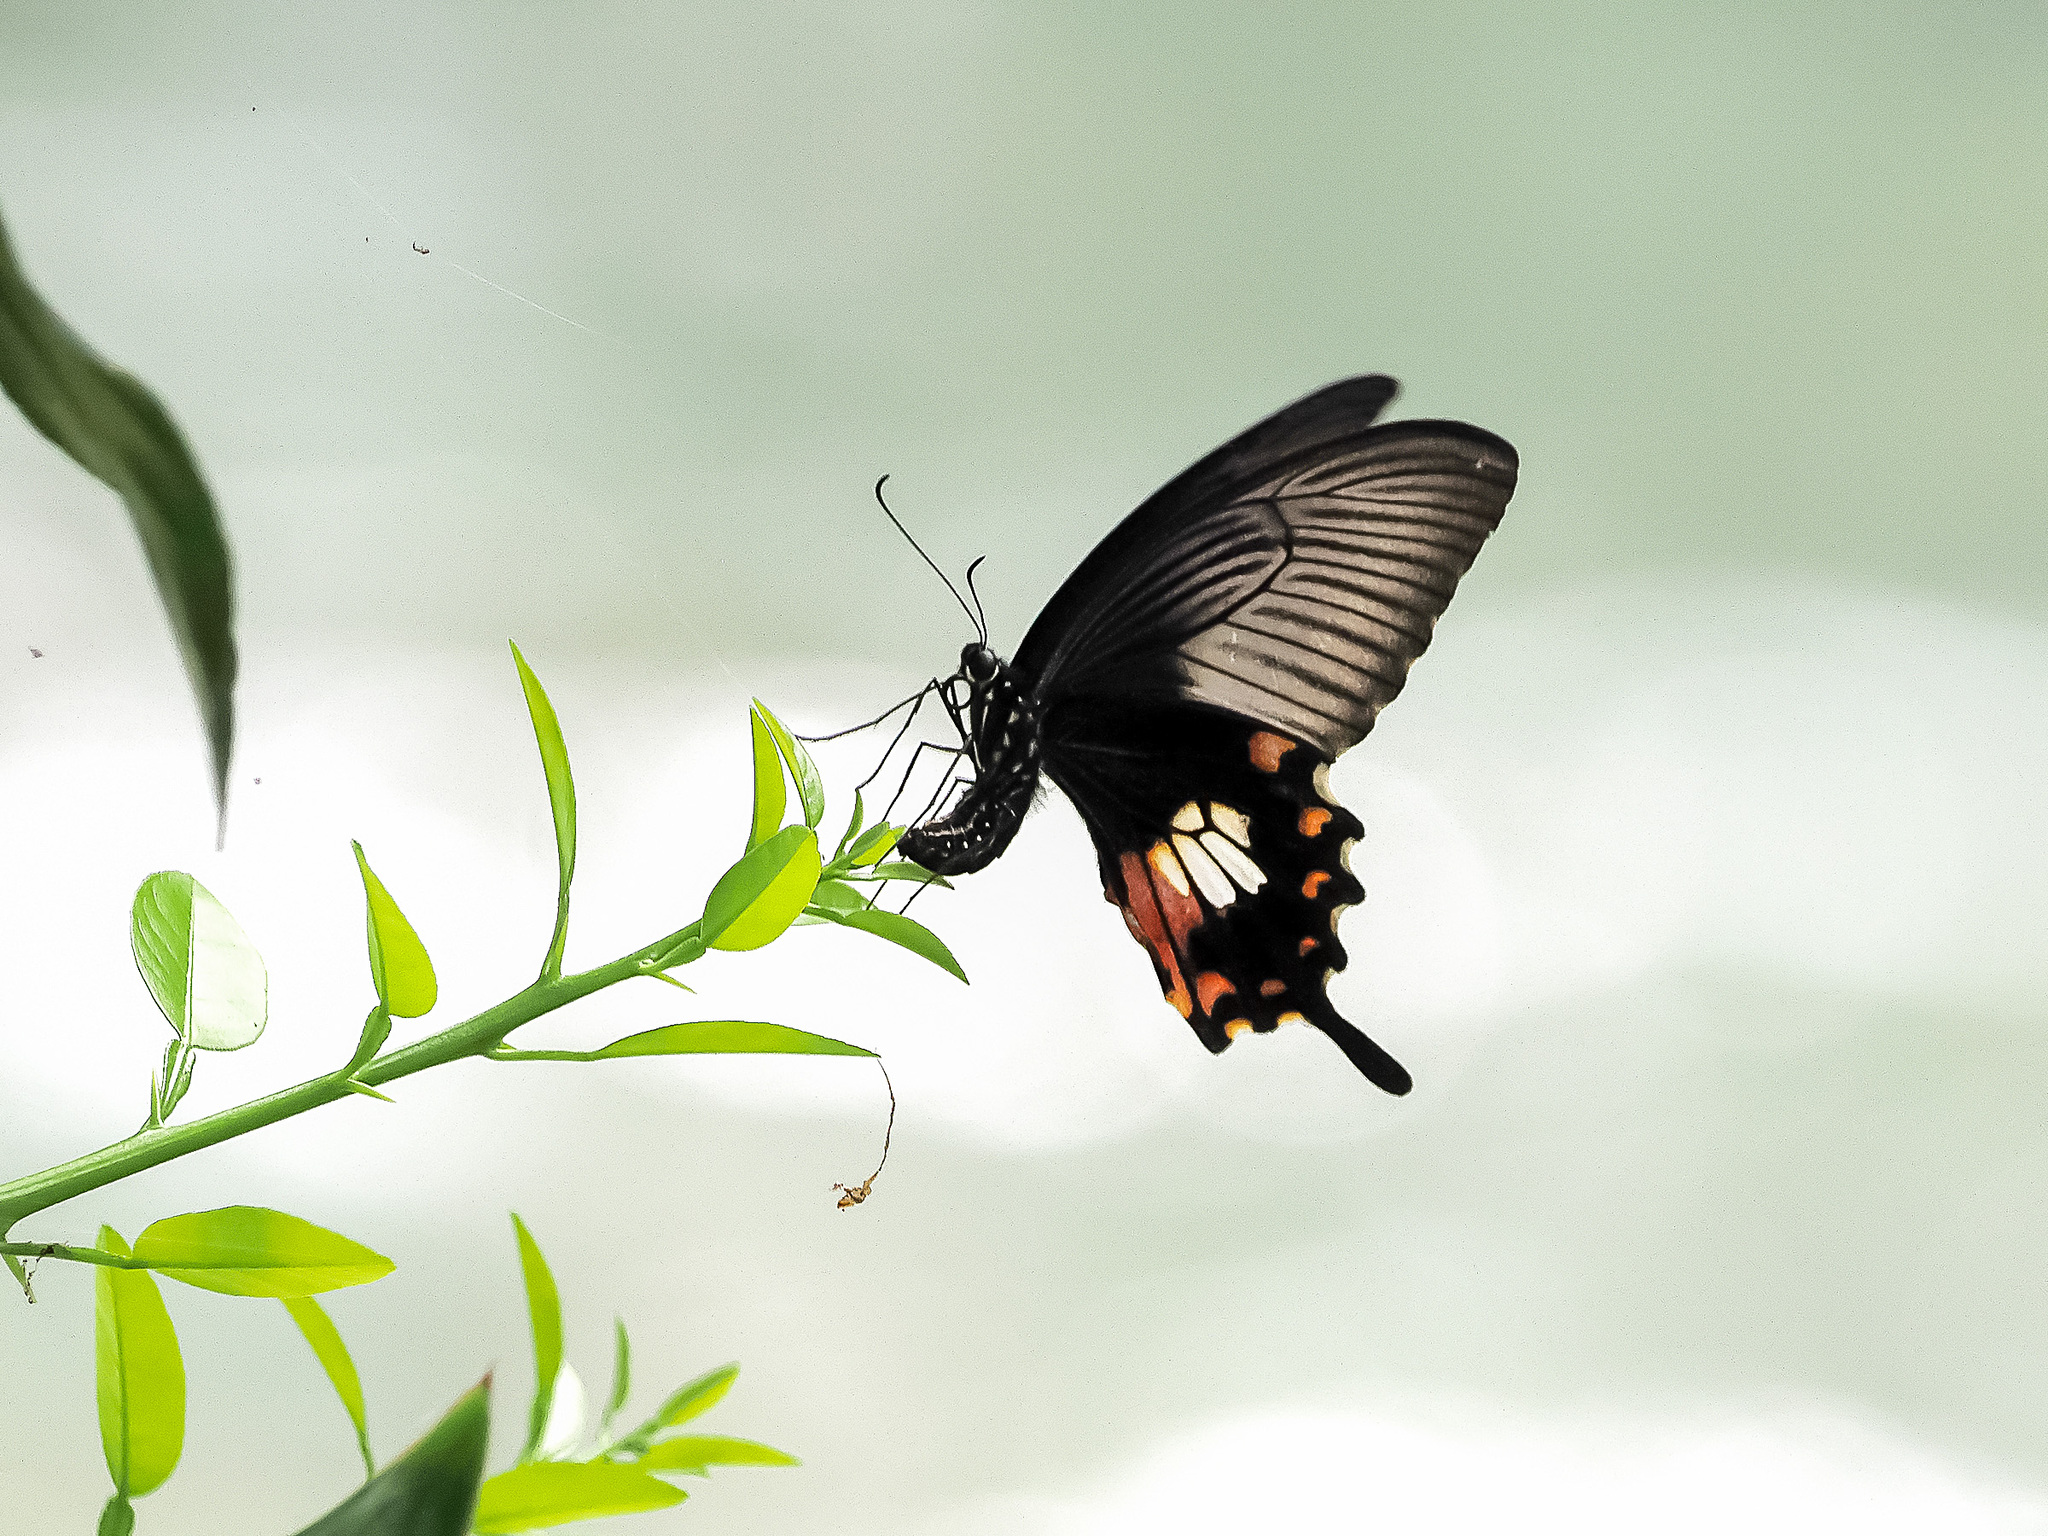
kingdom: Animalia
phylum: Arthropoda
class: Insecta
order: Lepidoptera
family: Papilionidae
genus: Papilio
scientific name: Papilio polytes
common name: Common mormon
